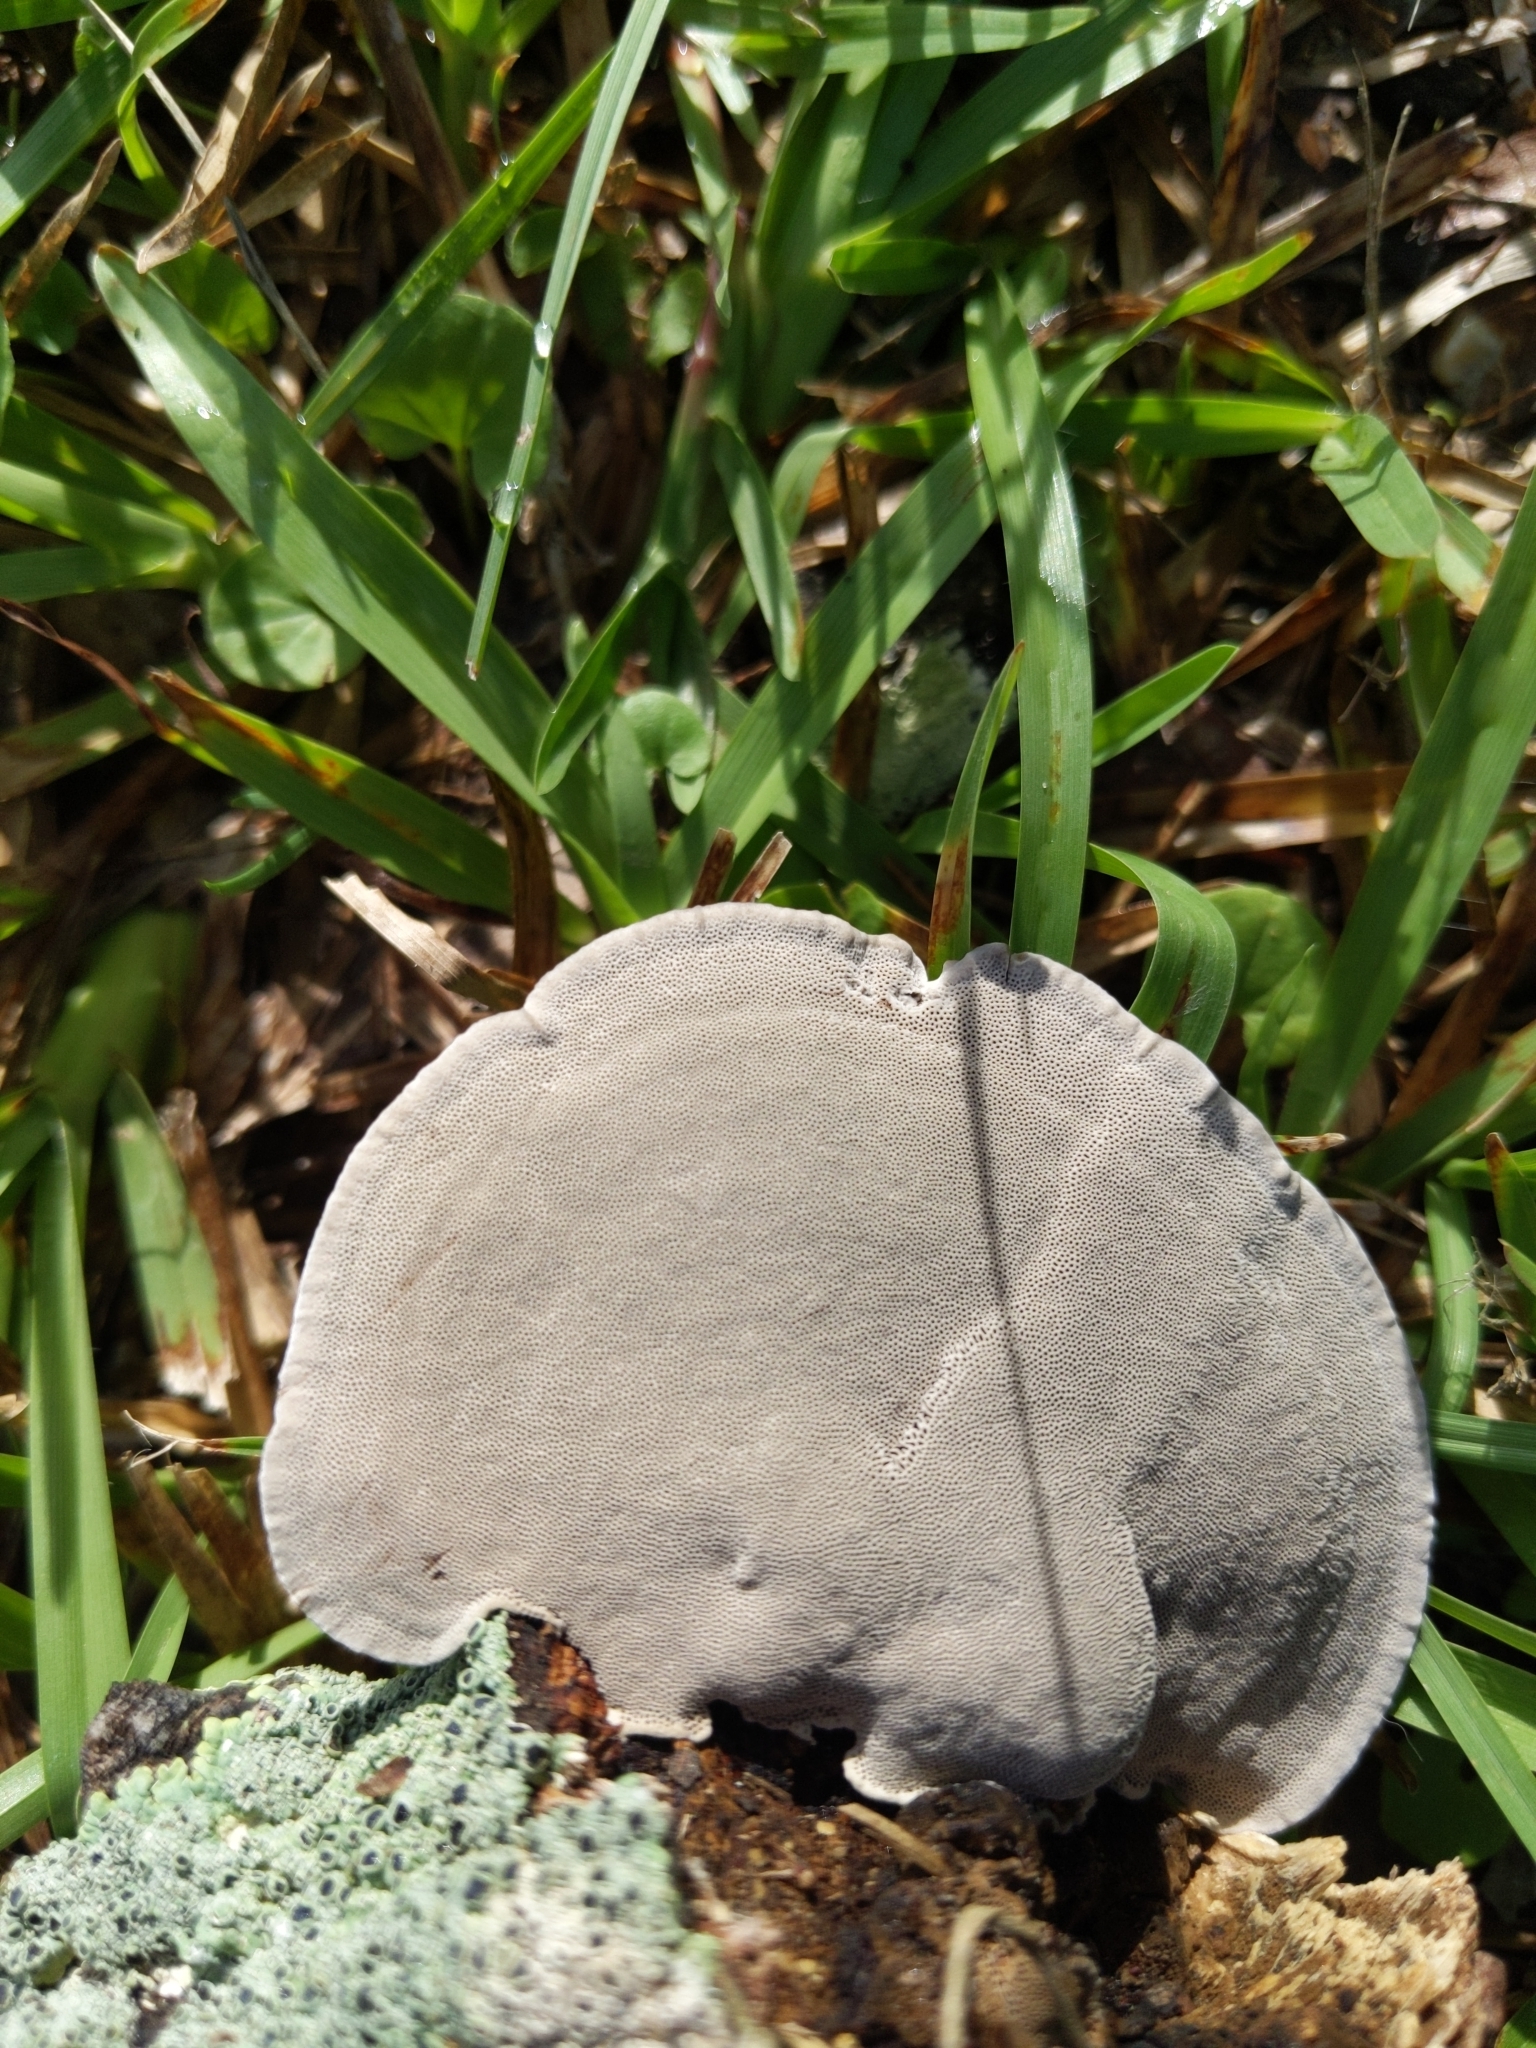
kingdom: Fungi
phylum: Basidiomycota
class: Agaricomycetes
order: Polyporales
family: Cerrenaceae
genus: Cerrena
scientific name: Cerrena hydnoides
